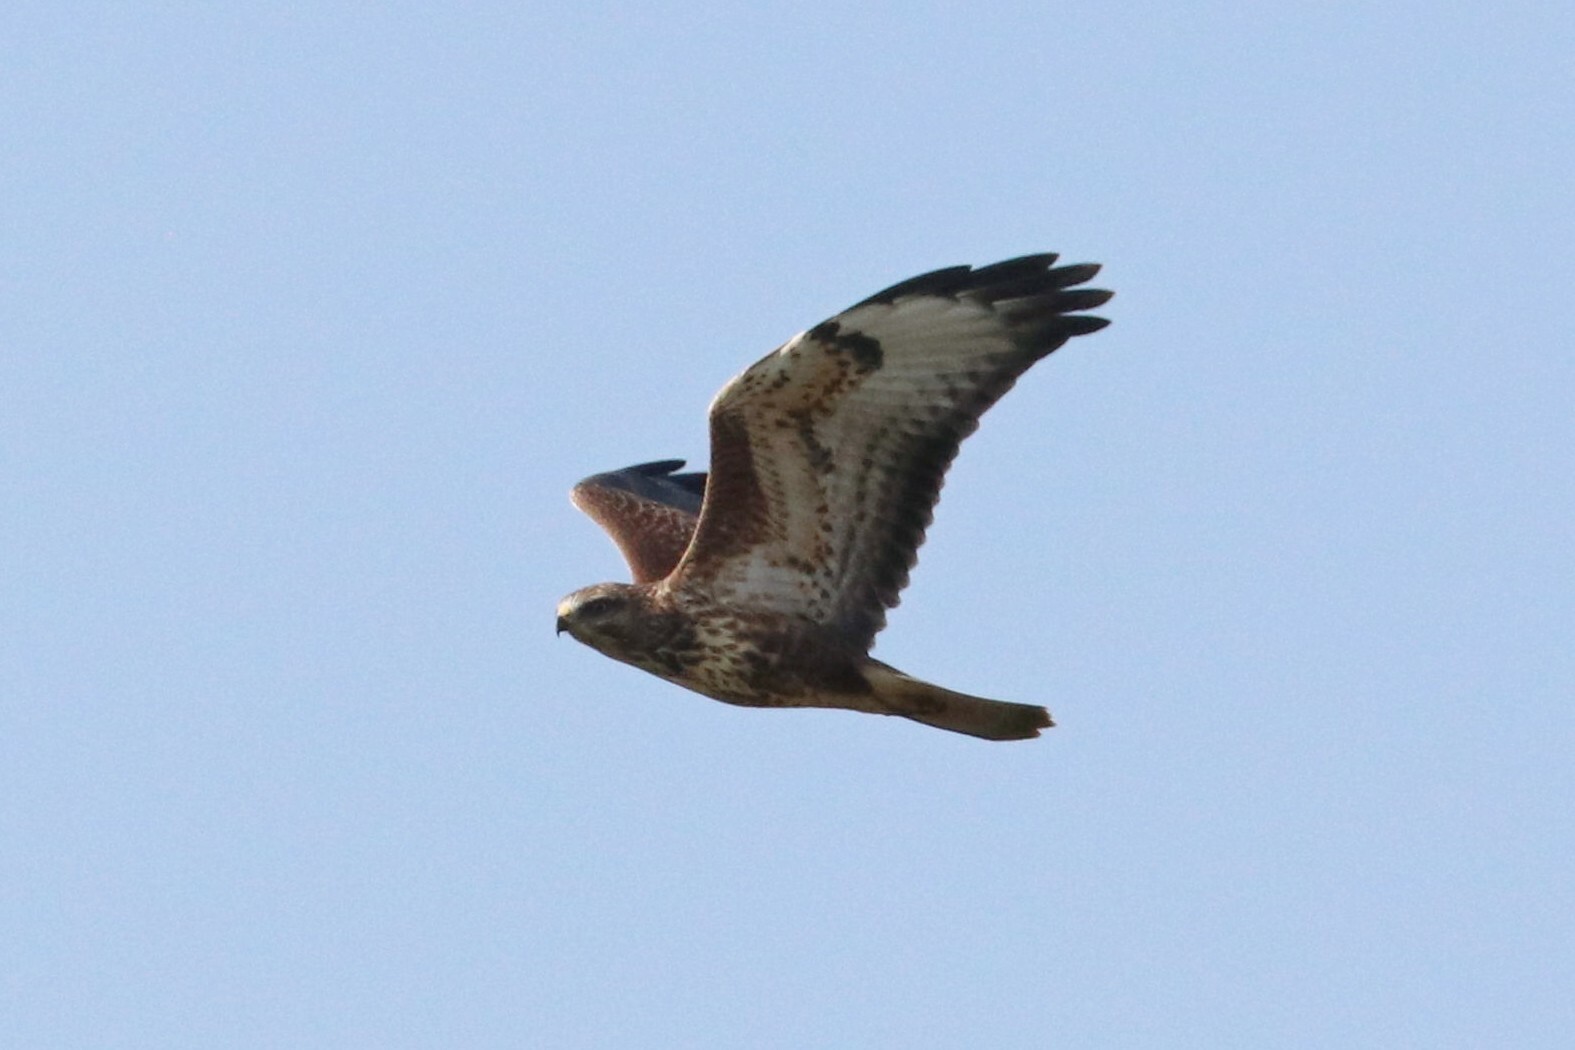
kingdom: Animalia
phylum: Chordata
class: Aves
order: Accipitriformes
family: Accipitridae
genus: Buteo
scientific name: Buteo buteo
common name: Common buzzard
